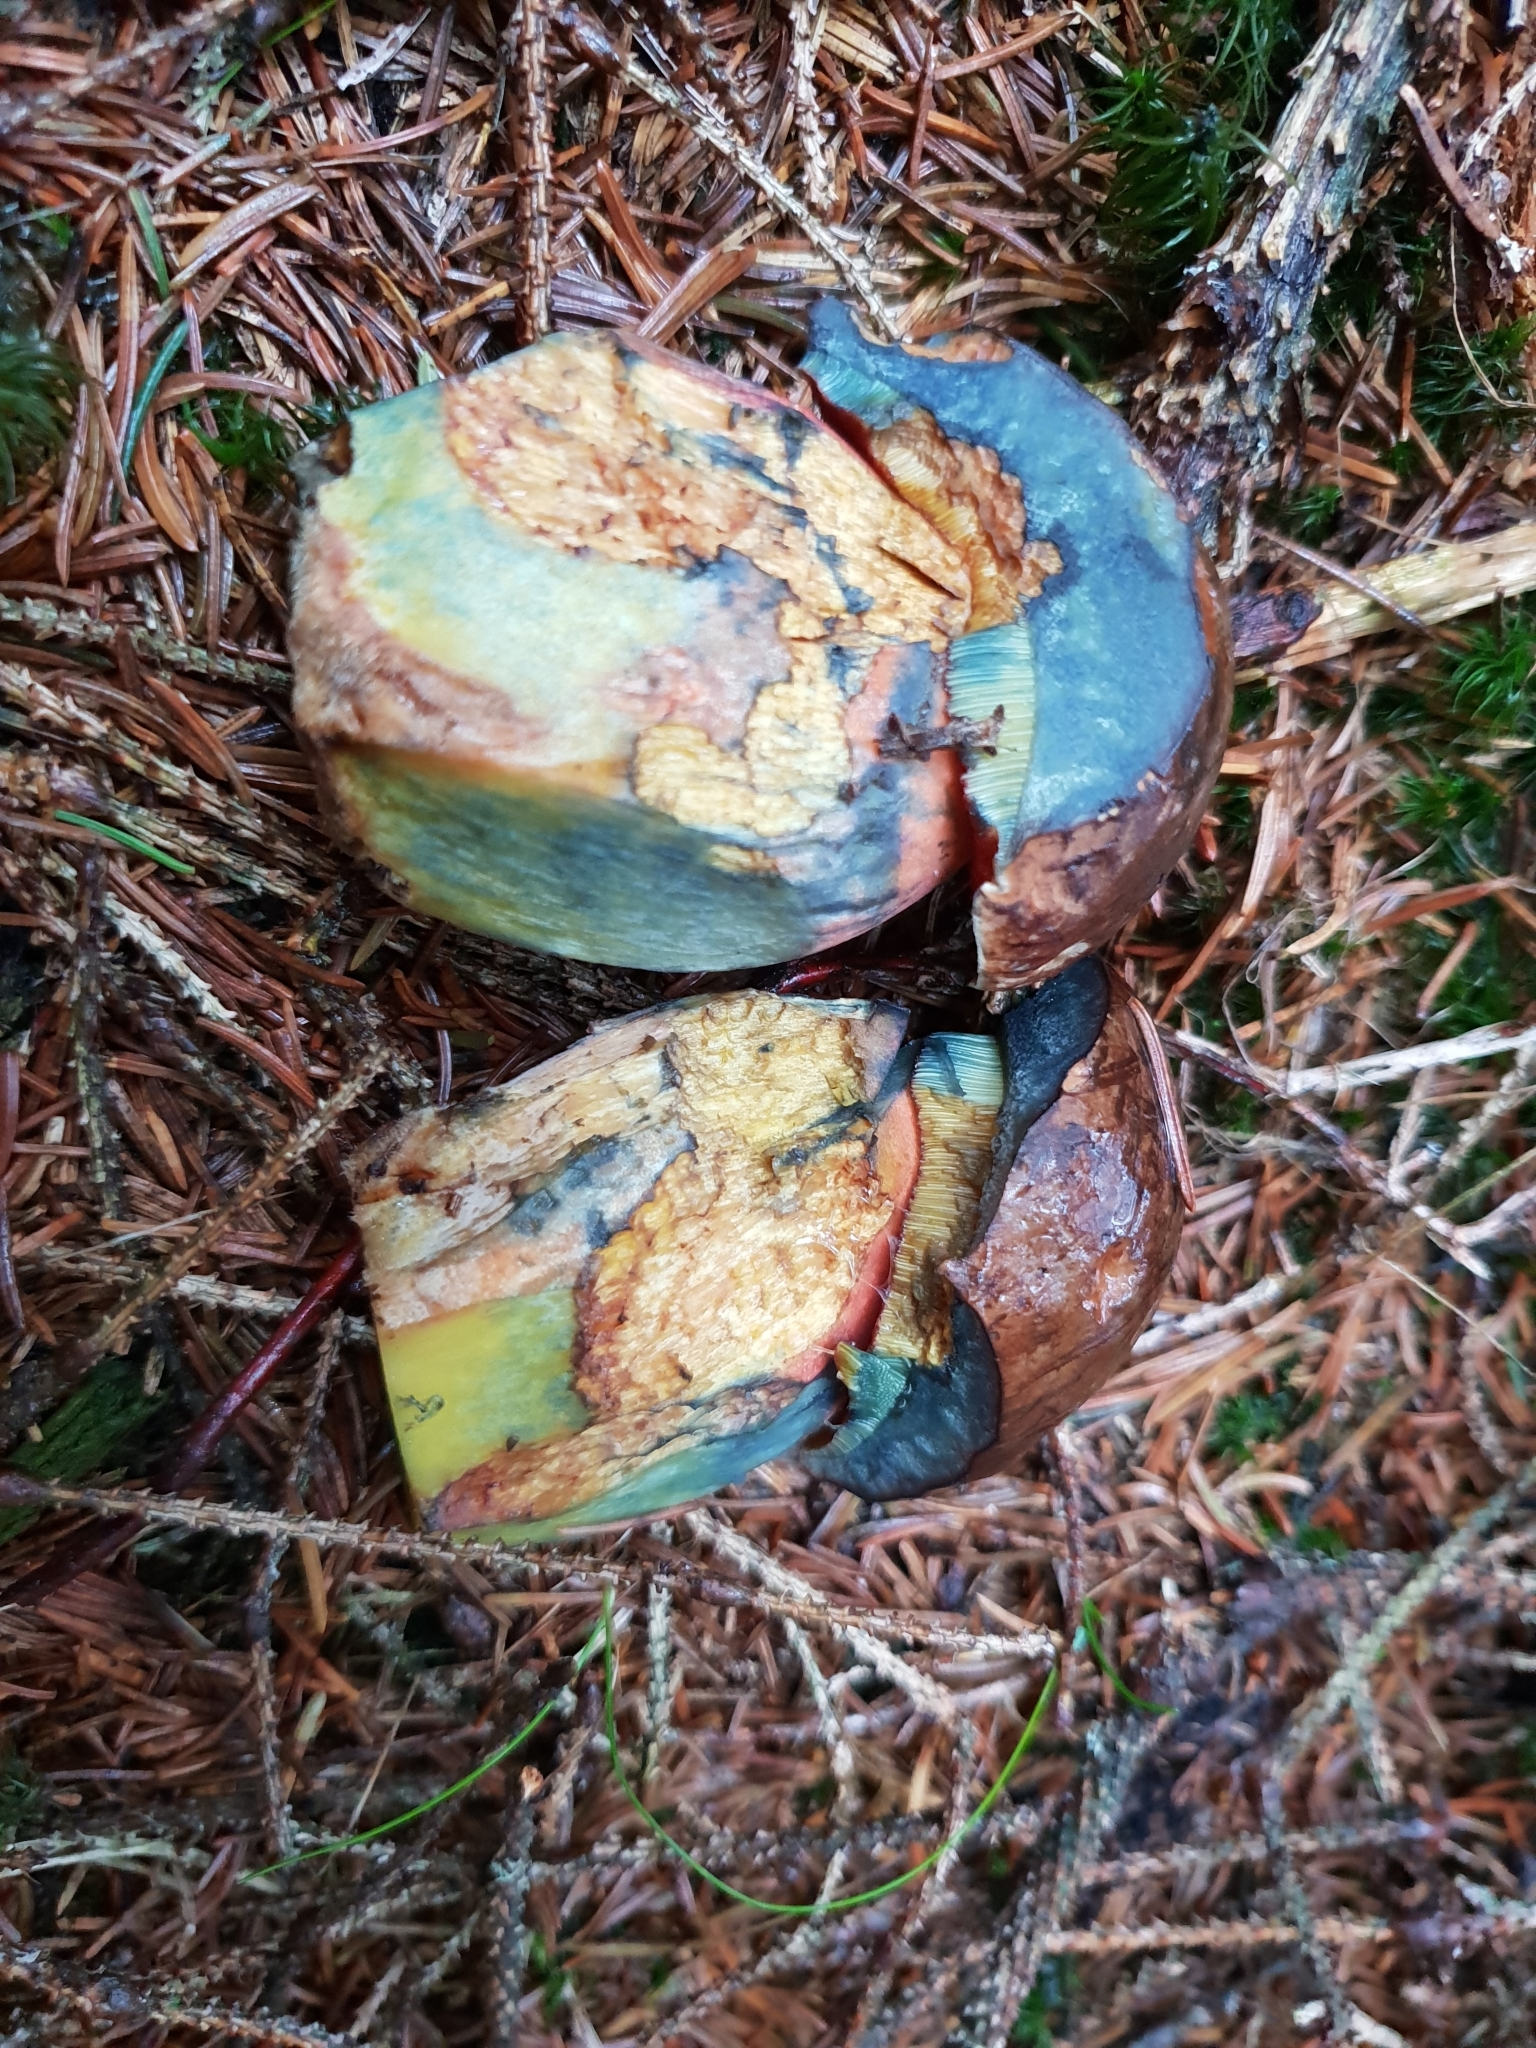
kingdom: Fungi
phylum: Basidiomycota
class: Agaricomycetes
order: Boletales
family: Boletaceae
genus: Neoboletus
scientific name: Neoboletus erythropus
